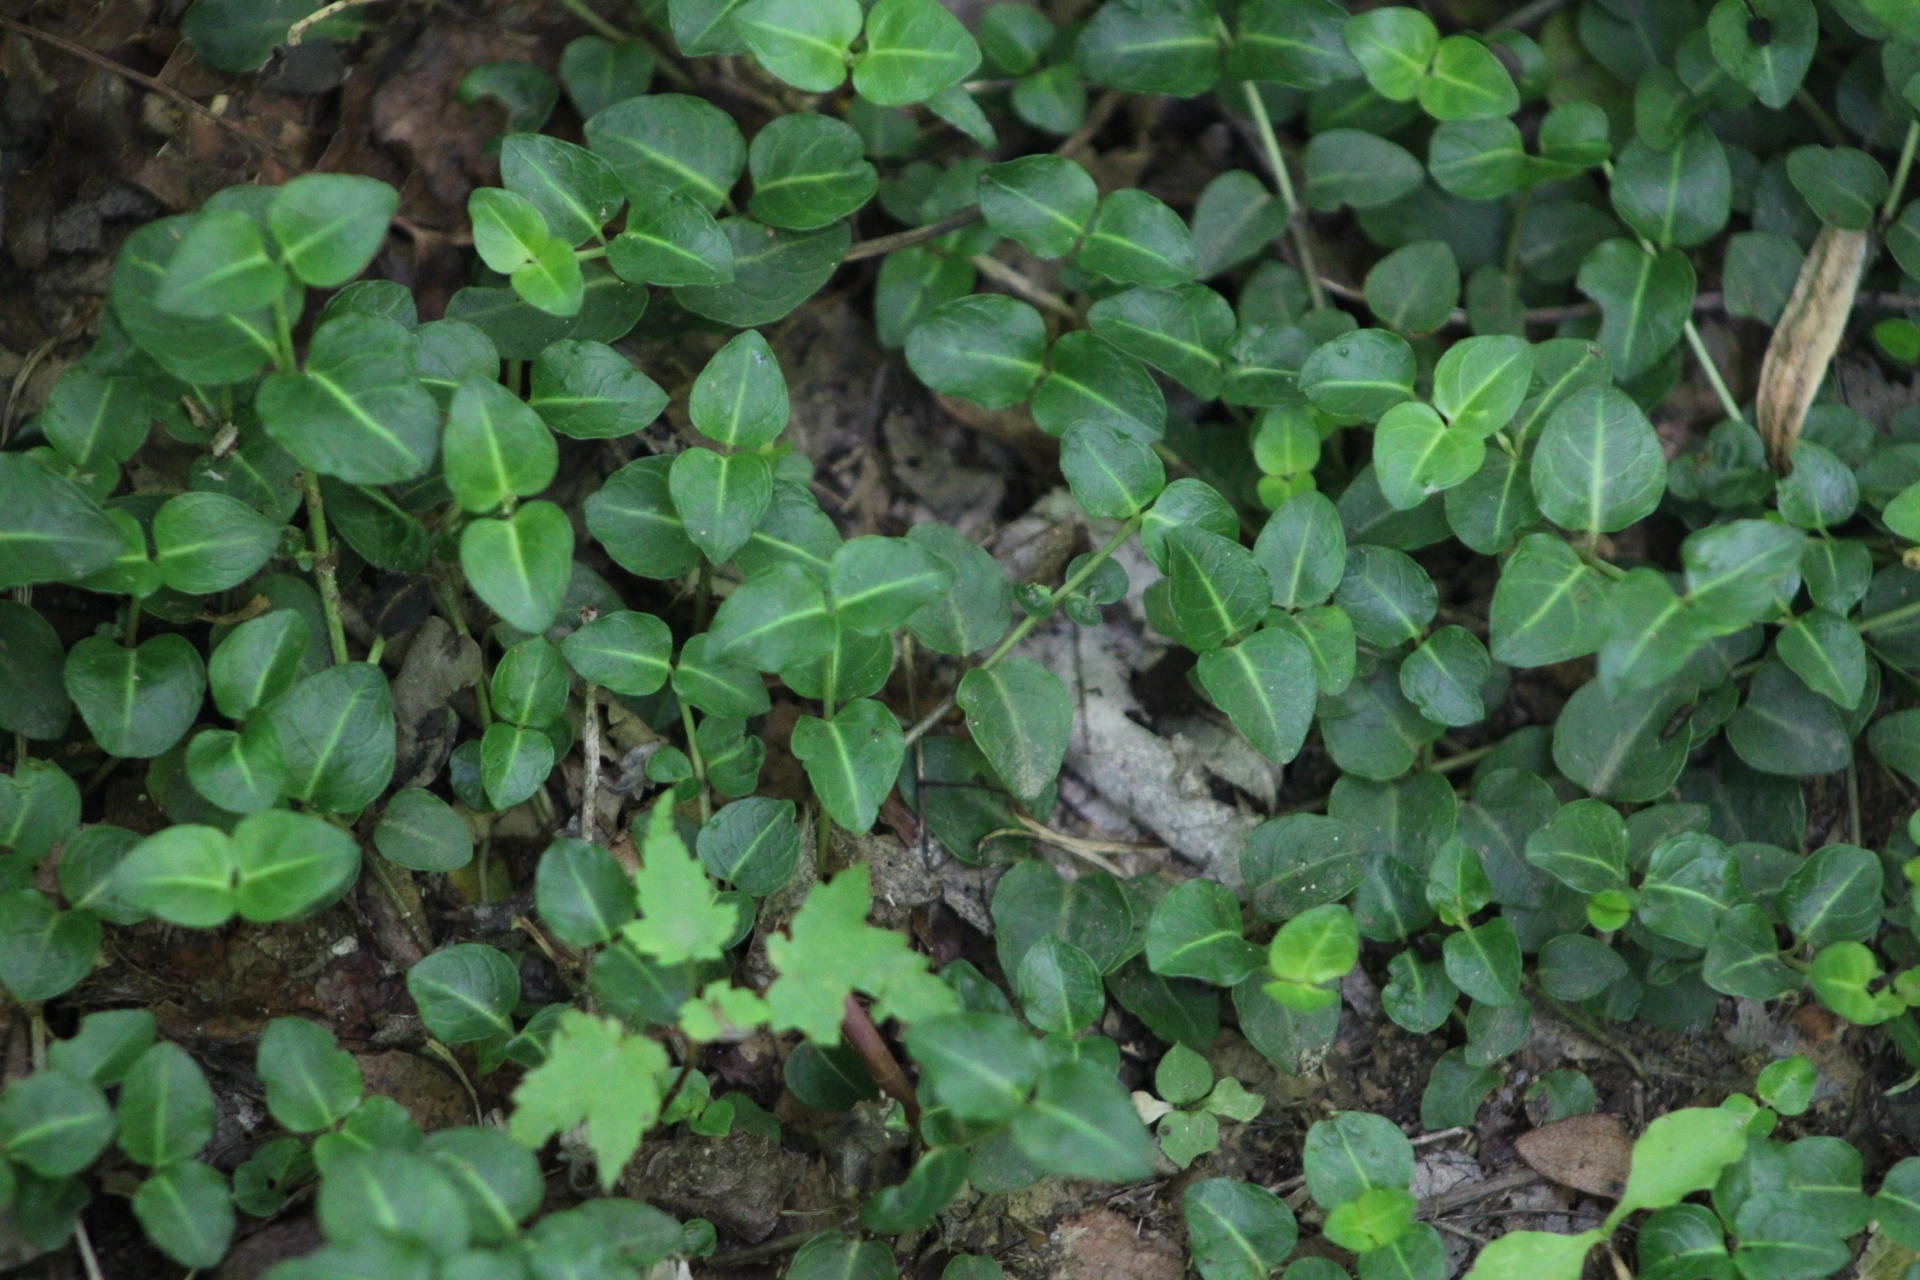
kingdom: Plantae
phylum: Tracheophyta
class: Magnoliopsida
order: Gentianales
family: Rubiaceae
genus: Mitchella
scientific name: Mitchella repens
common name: Partridge-berry
